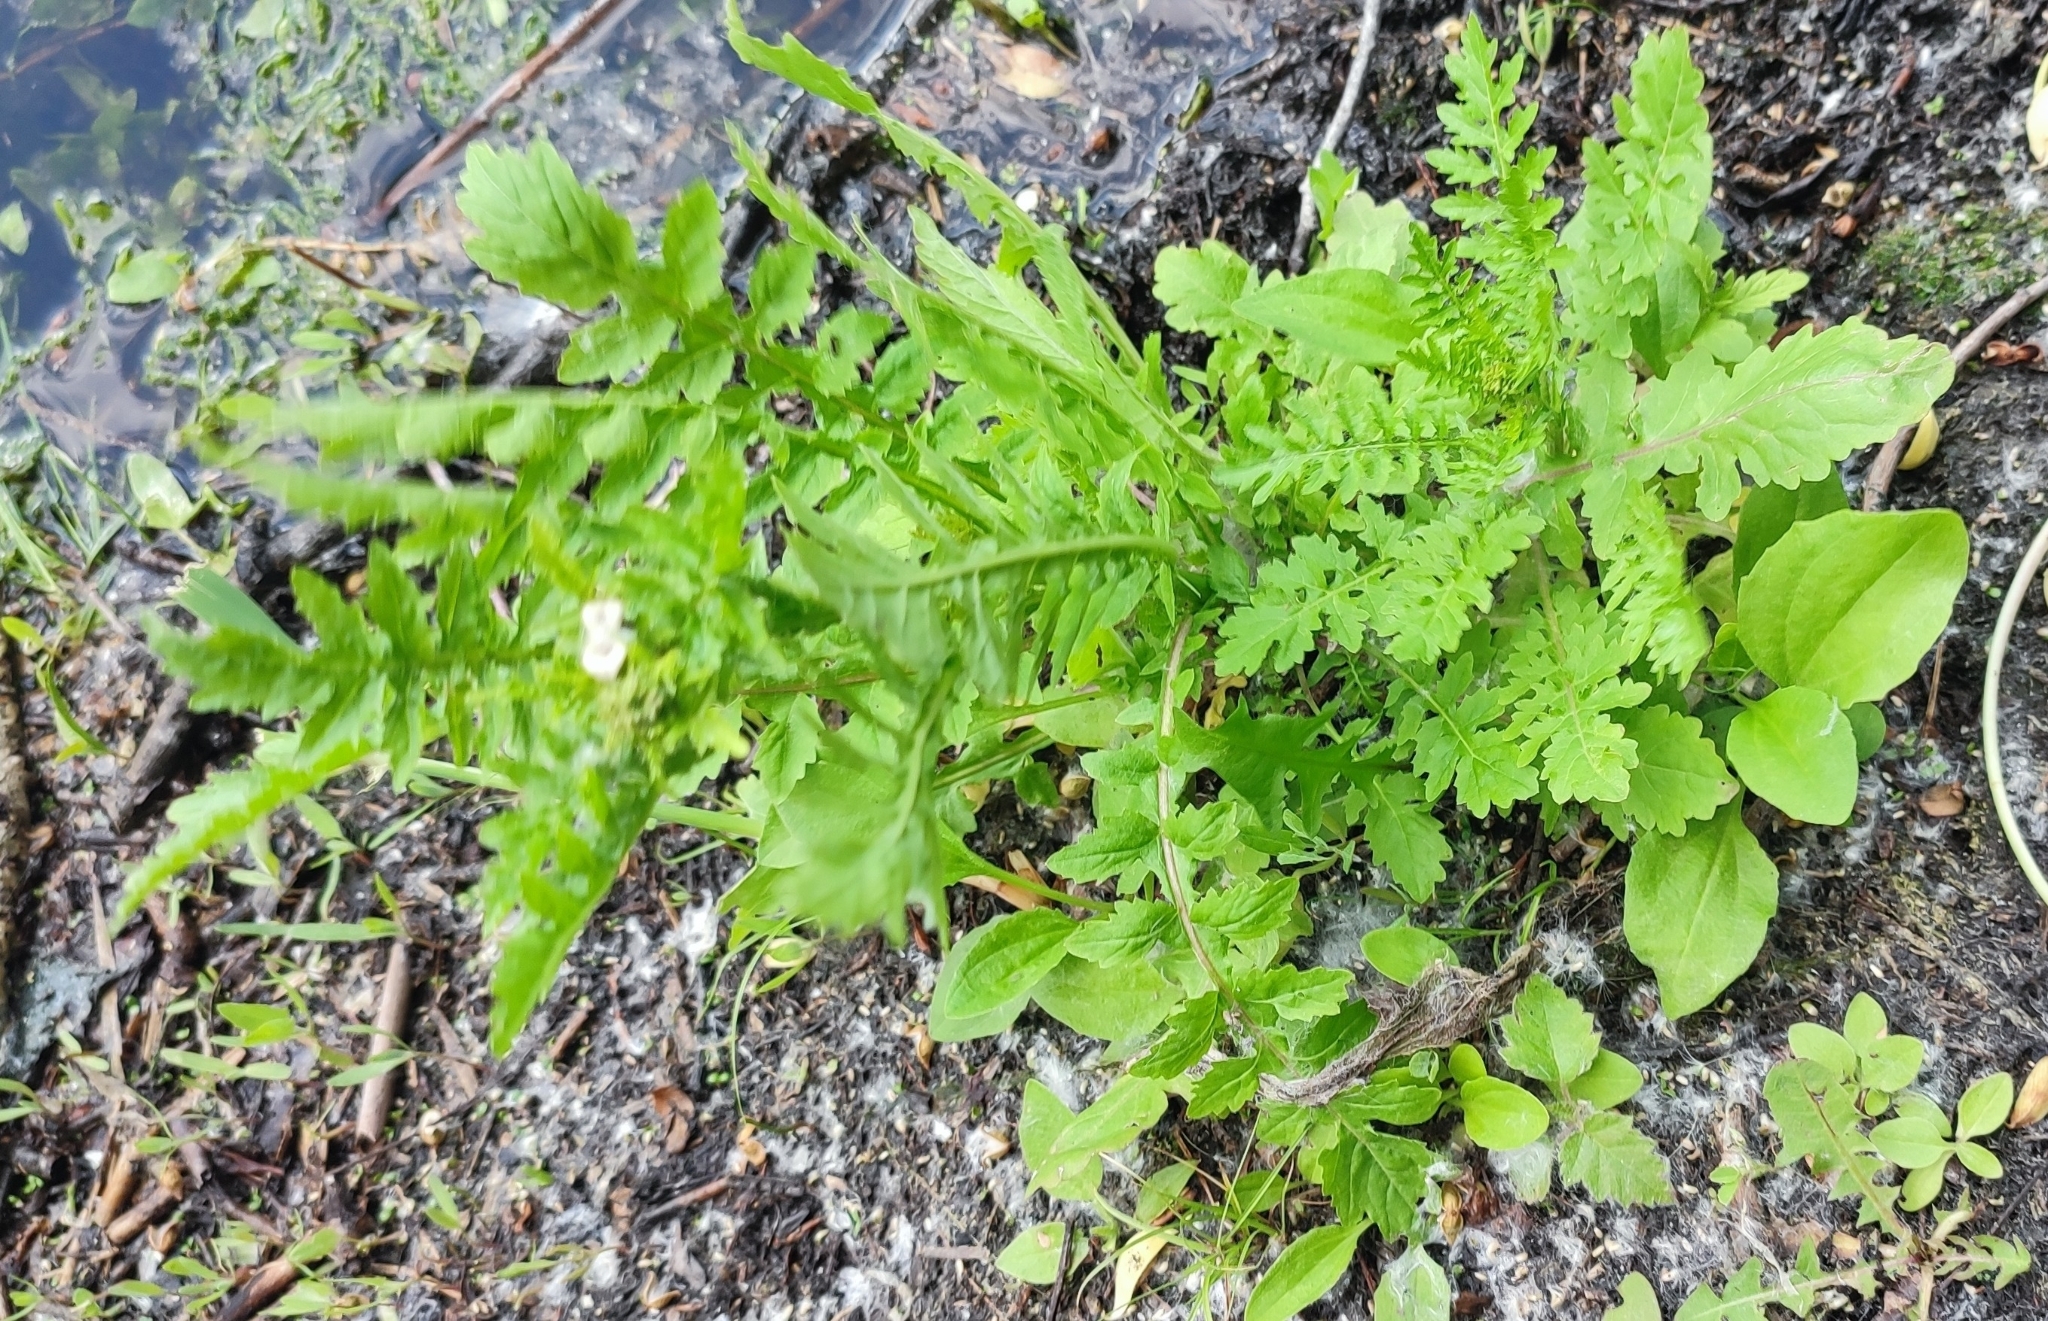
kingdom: Plantae
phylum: Tracheophyta
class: Magnoliopsida
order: Brassicales
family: Brassicaceae
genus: Rorippa
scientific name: Rorippa palustris
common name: Marsh yellow-cress
